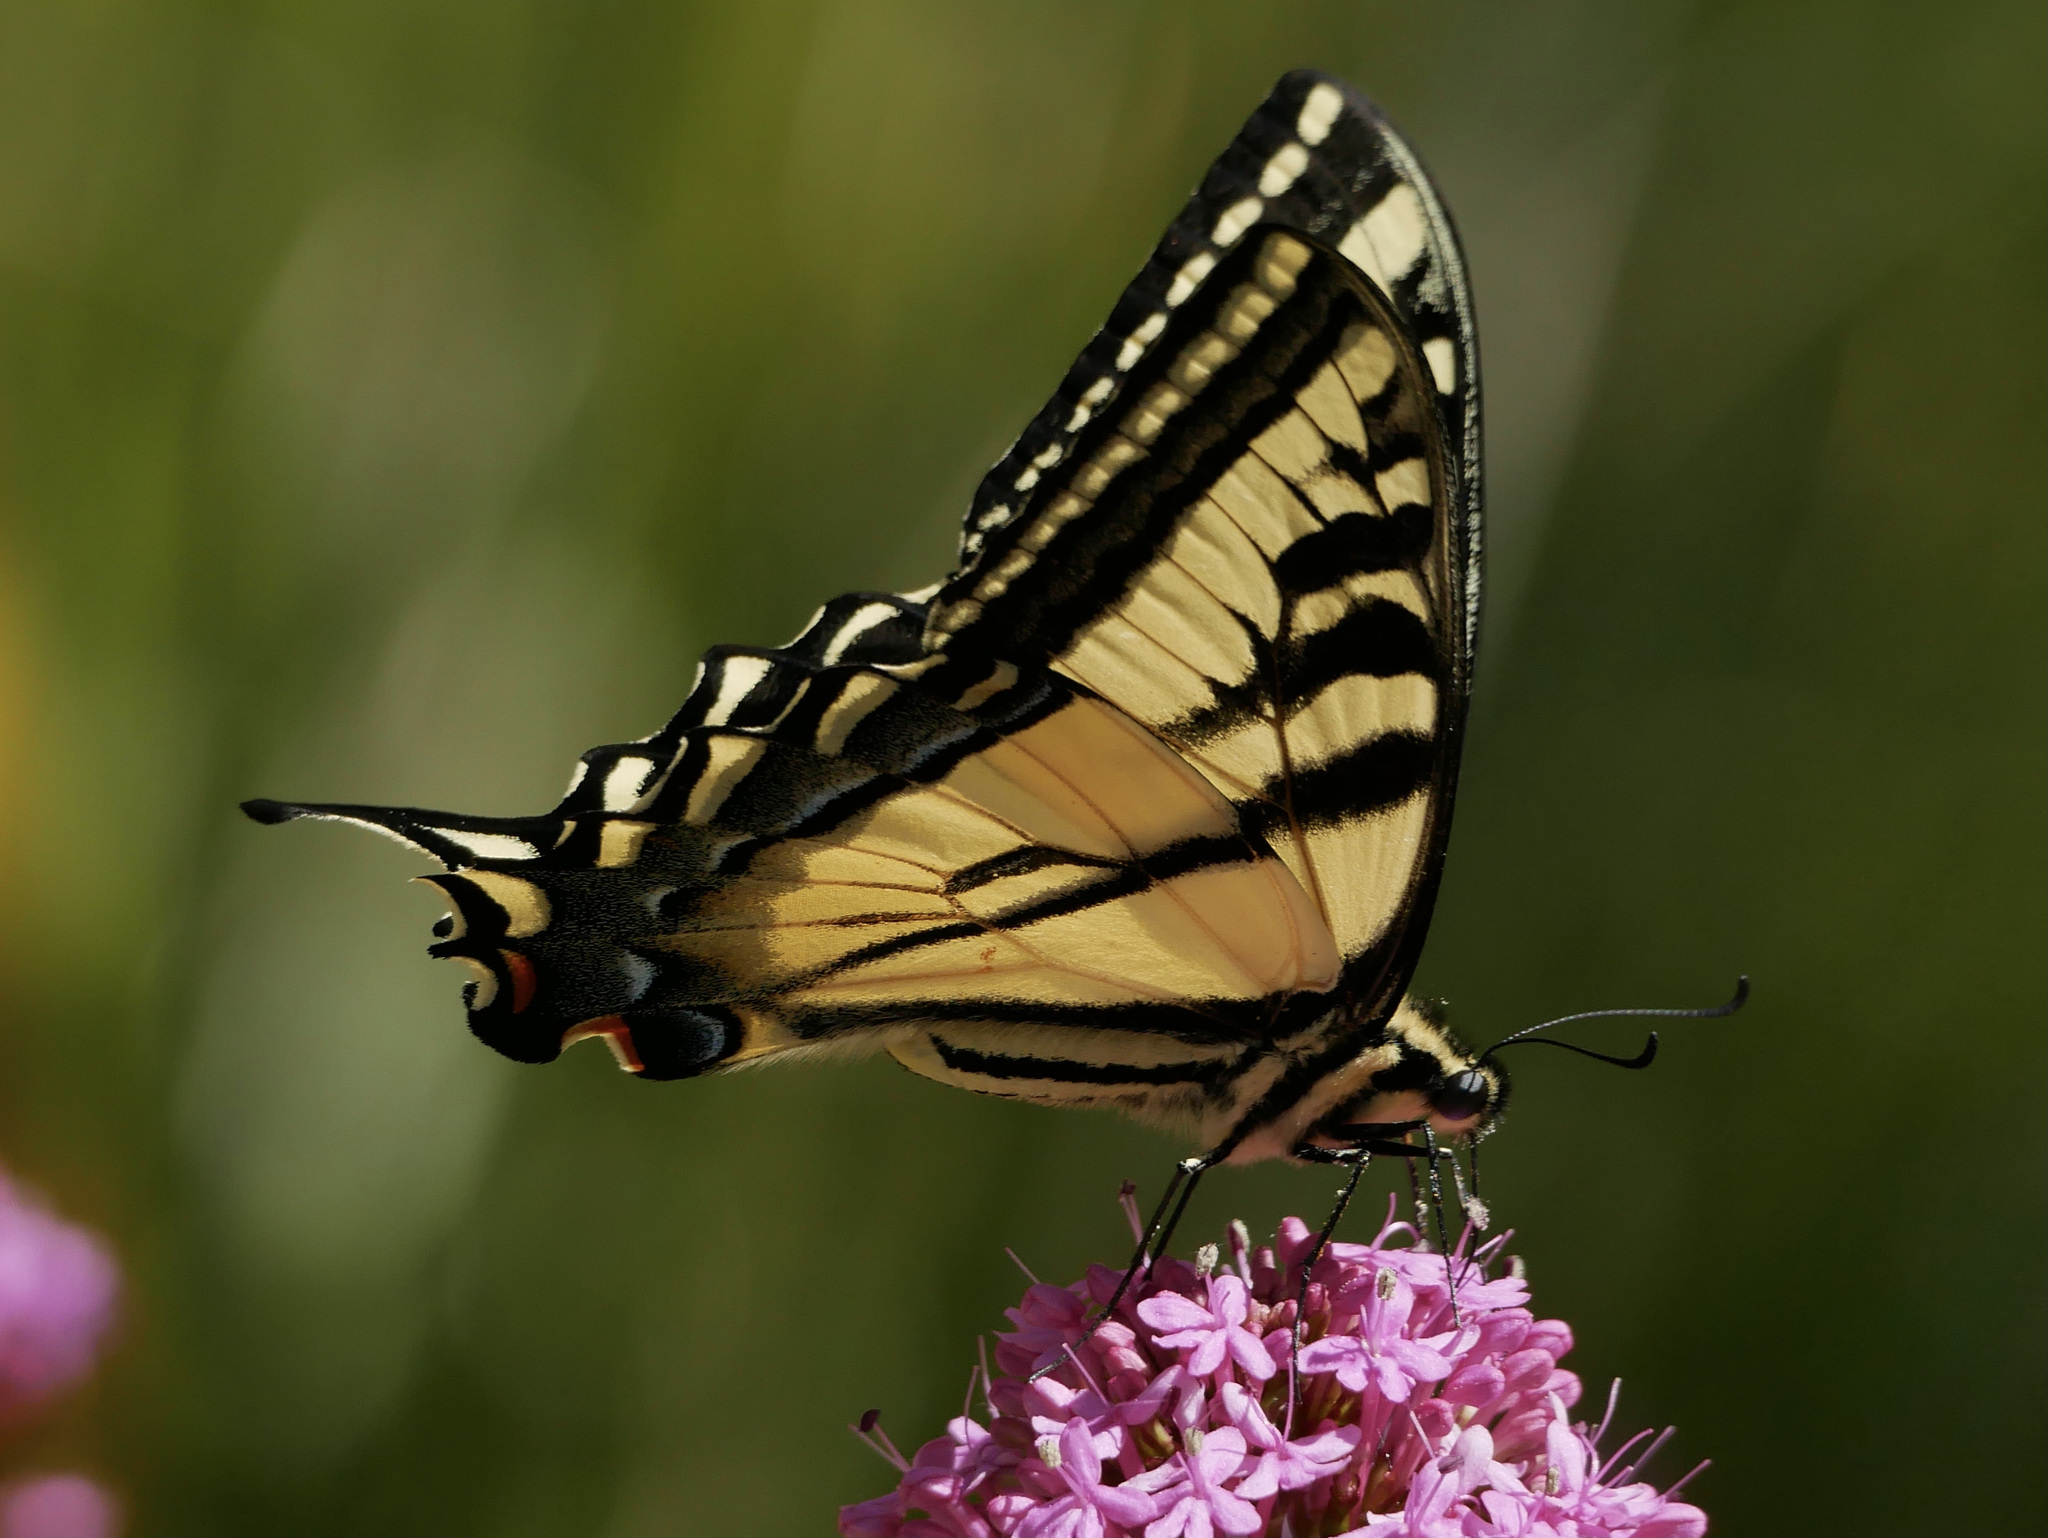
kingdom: Animalia
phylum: Arthropoda
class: Insecta
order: Lepidoptera
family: Papilionidae
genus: Papilio
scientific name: Papilio rutulus
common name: Western tiger swallowtail
